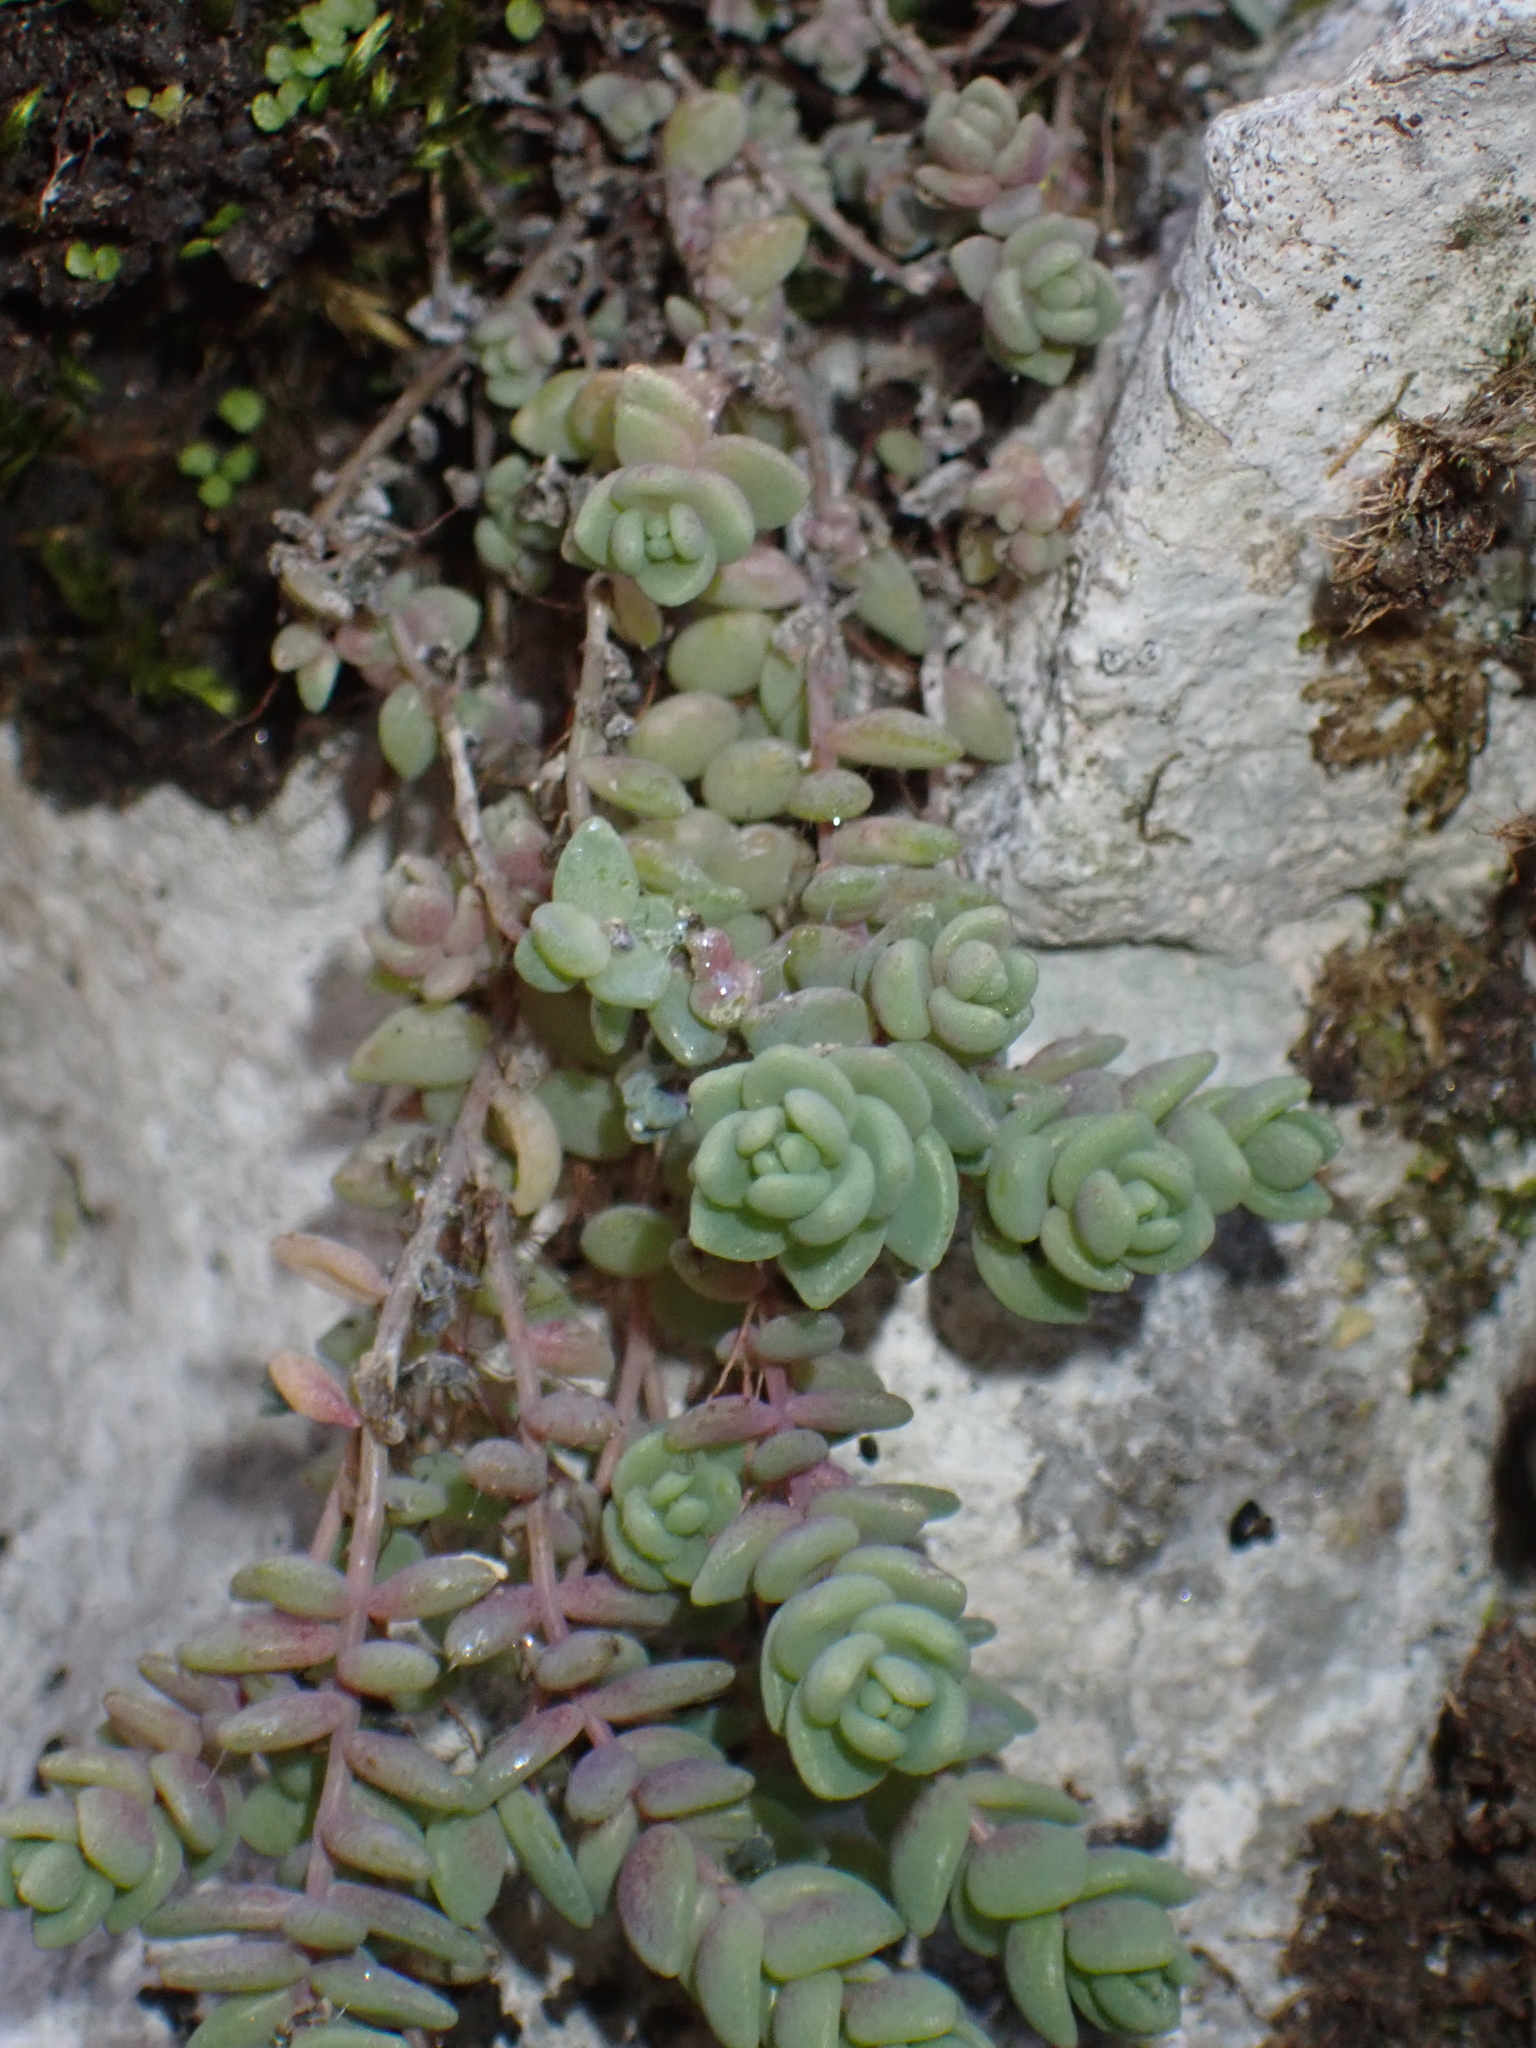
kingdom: Plantae
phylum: Tracheophyta
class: Magnoliopsida
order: Saxifragales
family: Crassulaceae
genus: Sedum
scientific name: Sedum dasyphyllum
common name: Thick-leaf stonecrop
